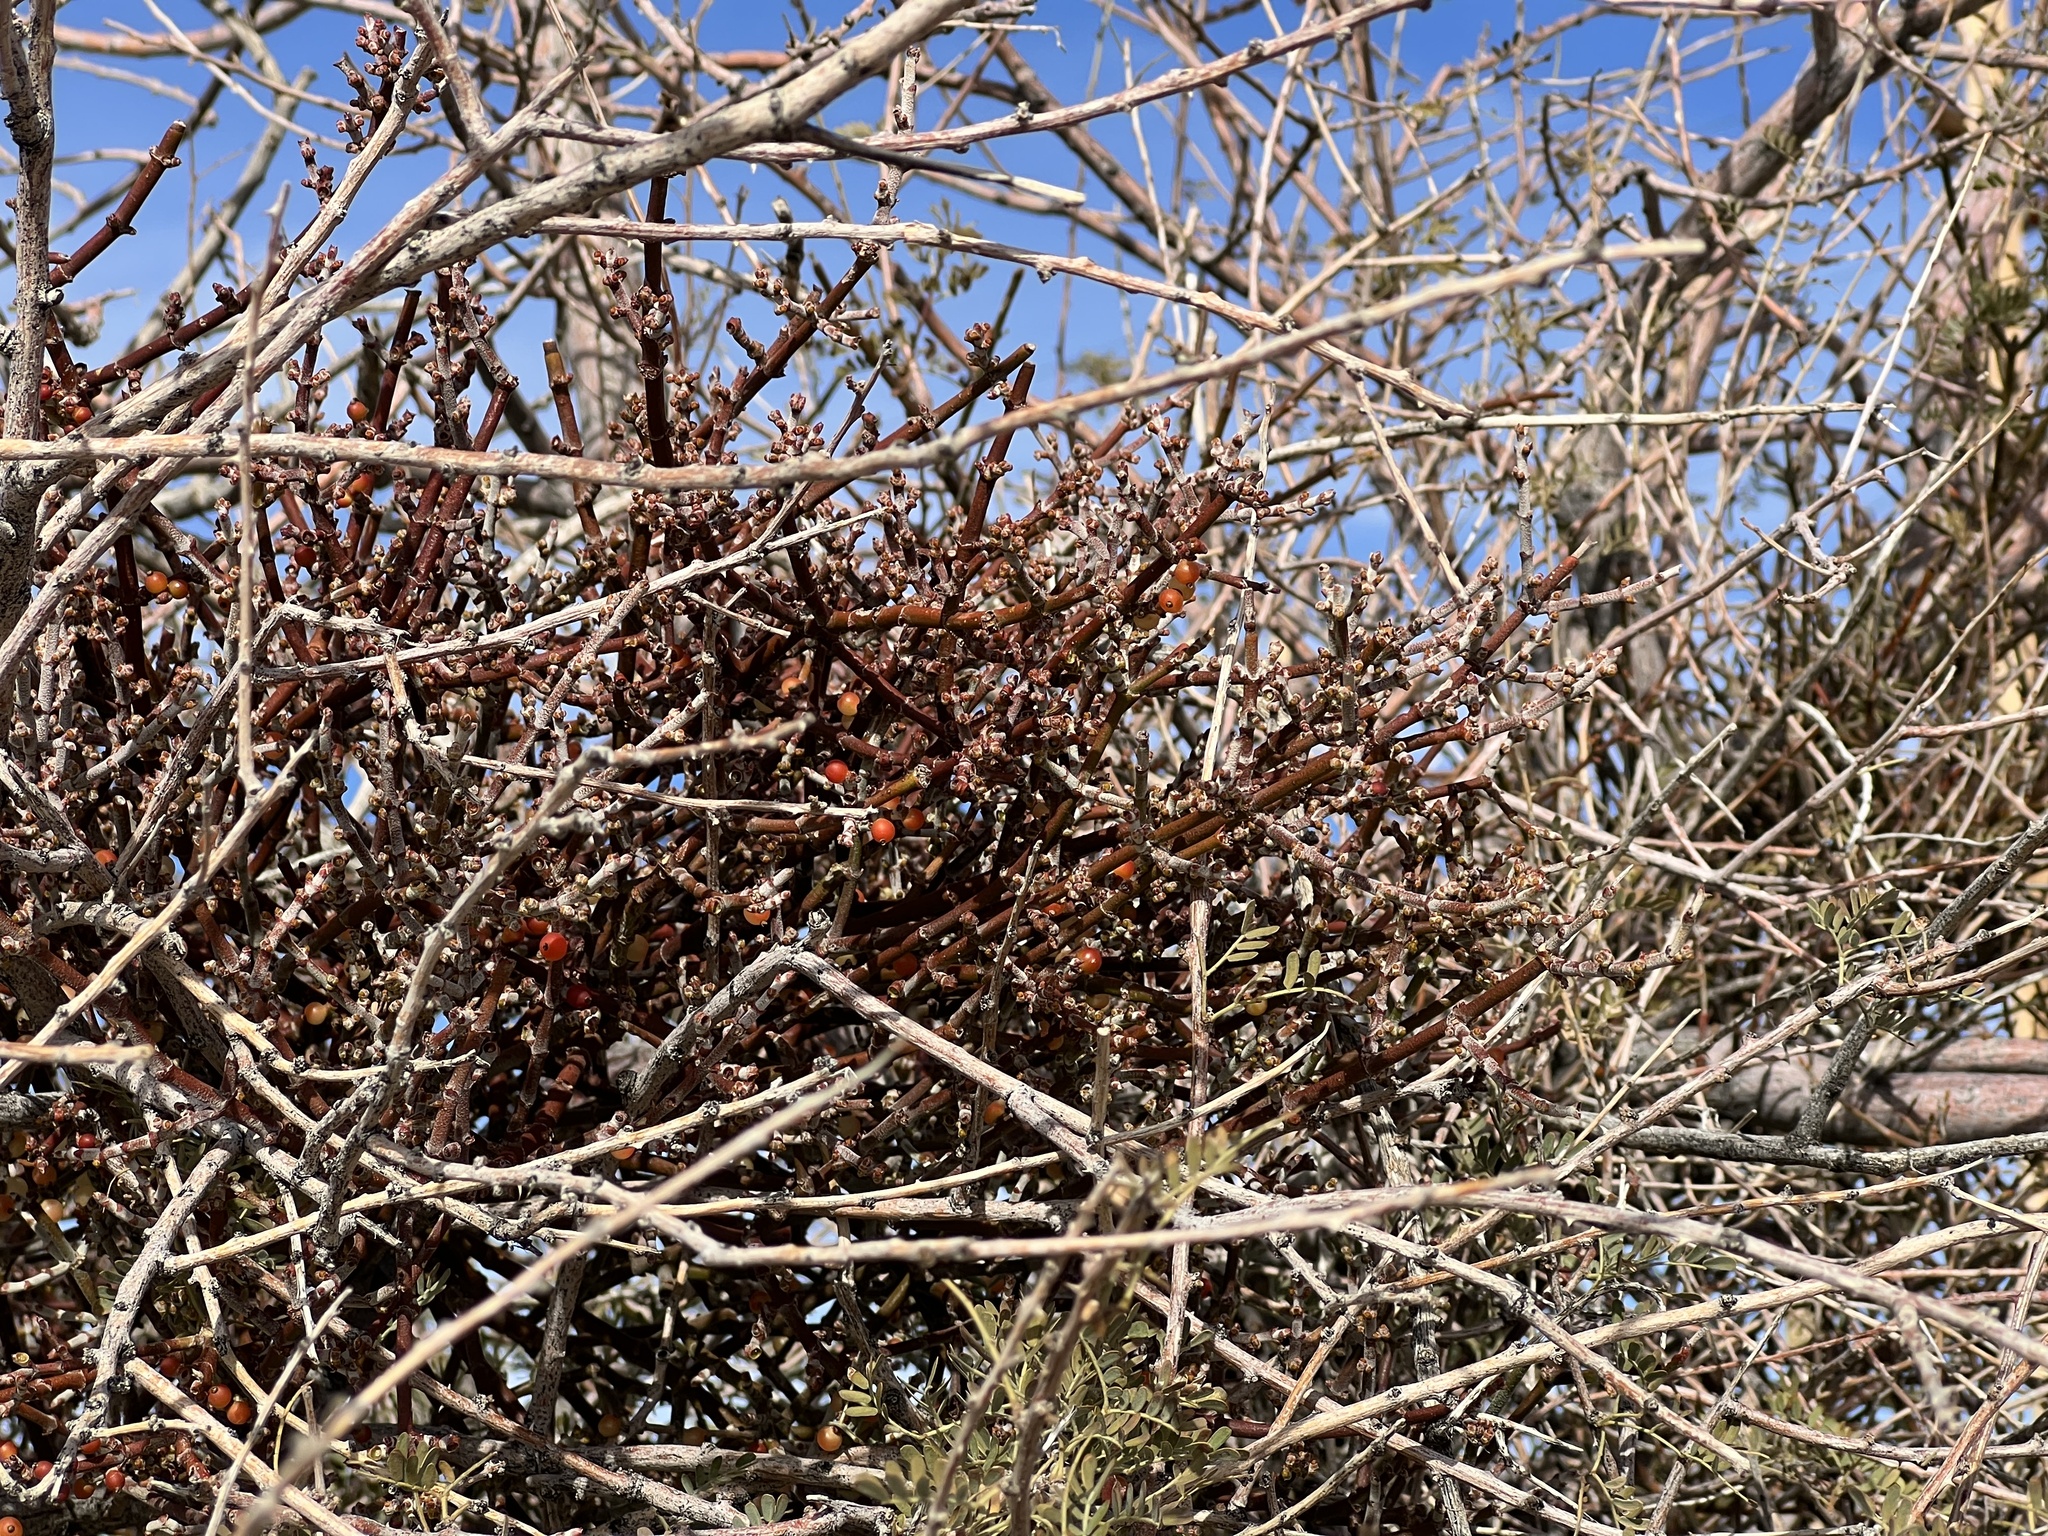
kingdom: Plantae
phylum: Tracheophyta
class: Magnoliopsida
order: Santalales
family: Viscaceae
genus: Phoradendron
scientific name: Phoradendron californicum
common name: Acacia mistletoe
